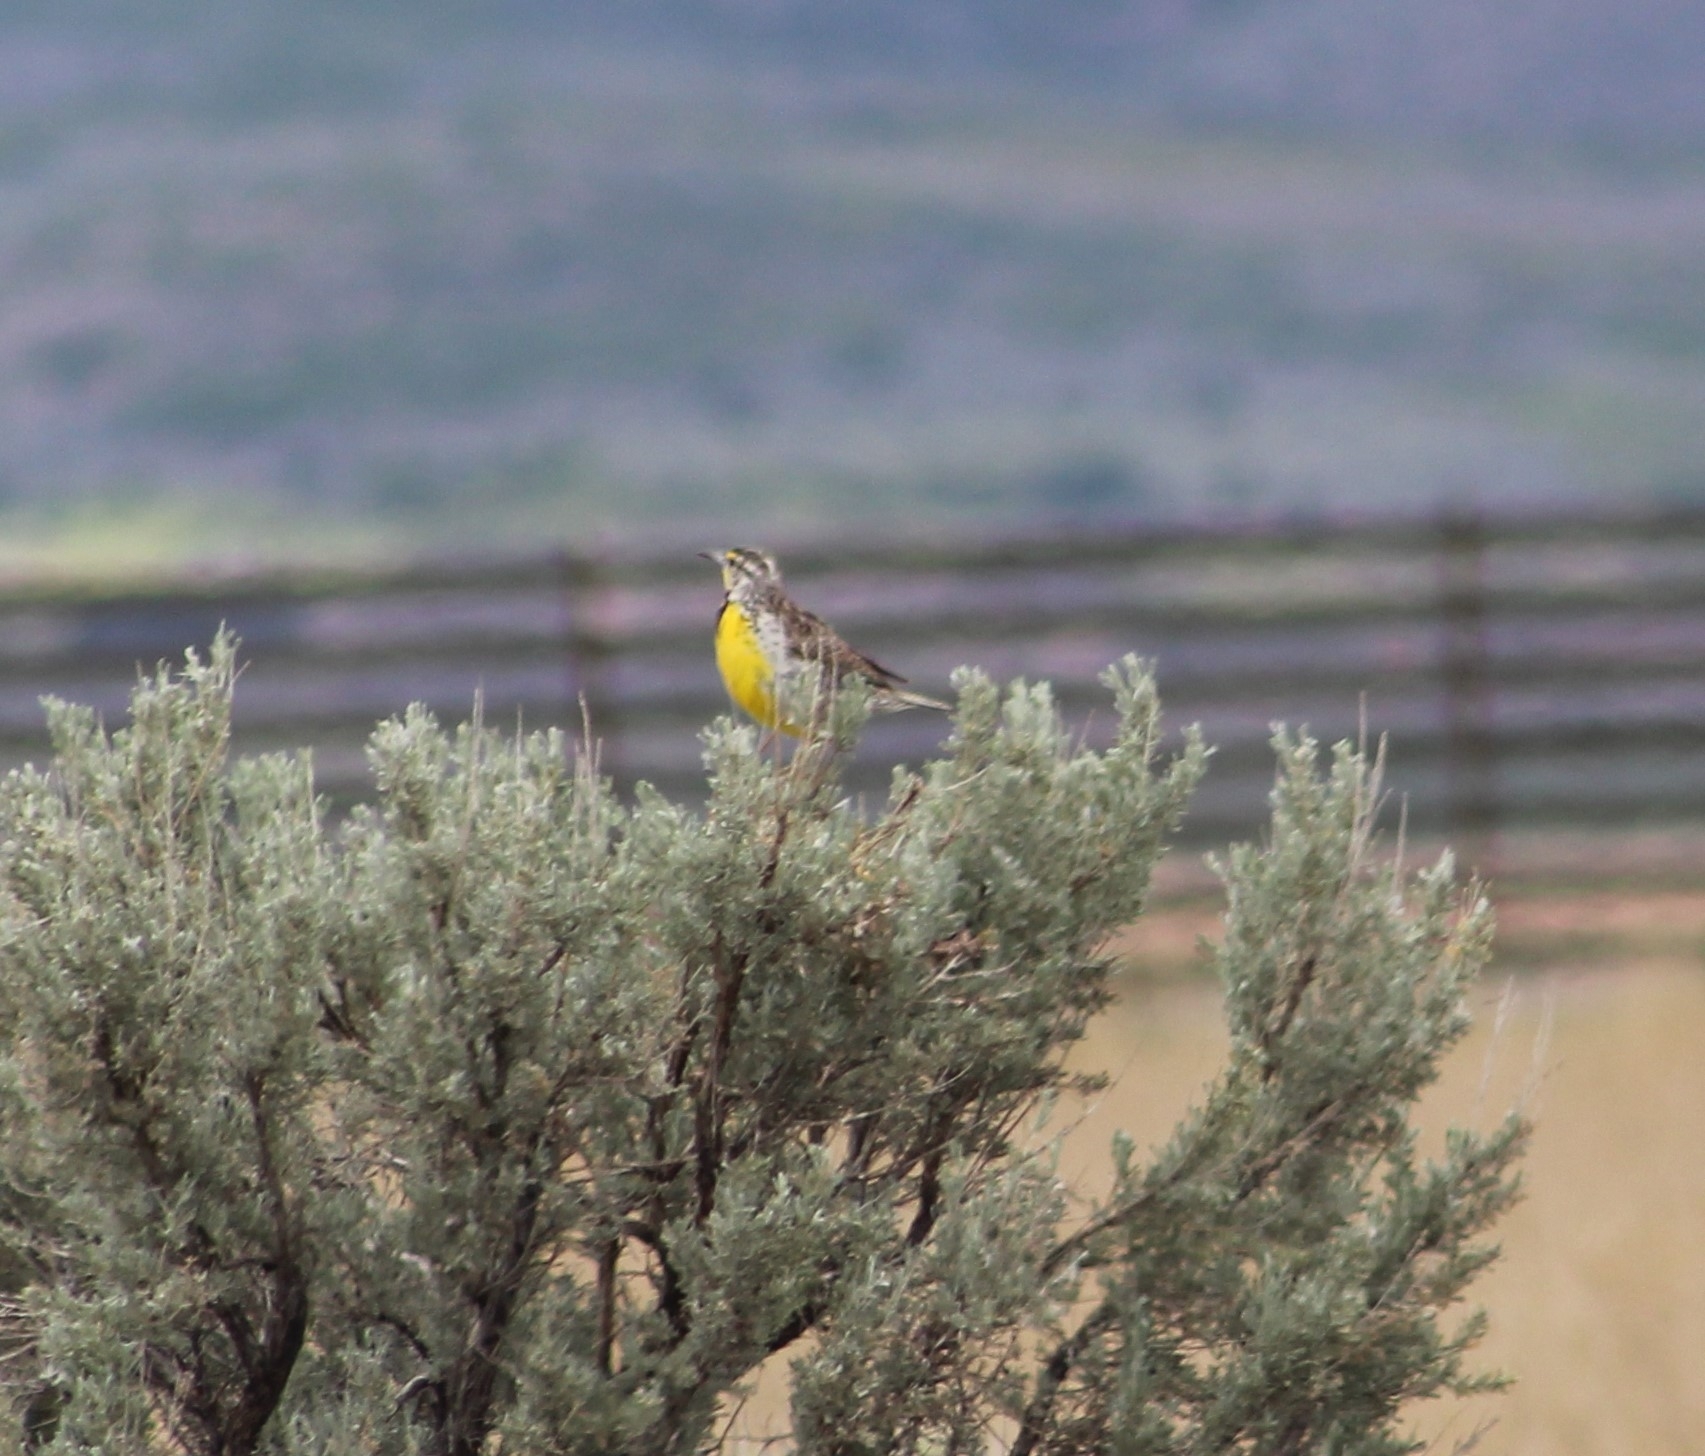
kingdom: Animalia
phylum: Chordata
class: Aves
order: Passeriformes
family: Icteridae
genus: Sturnella
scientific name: Sturnella neglecta
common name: Western meadowlark
